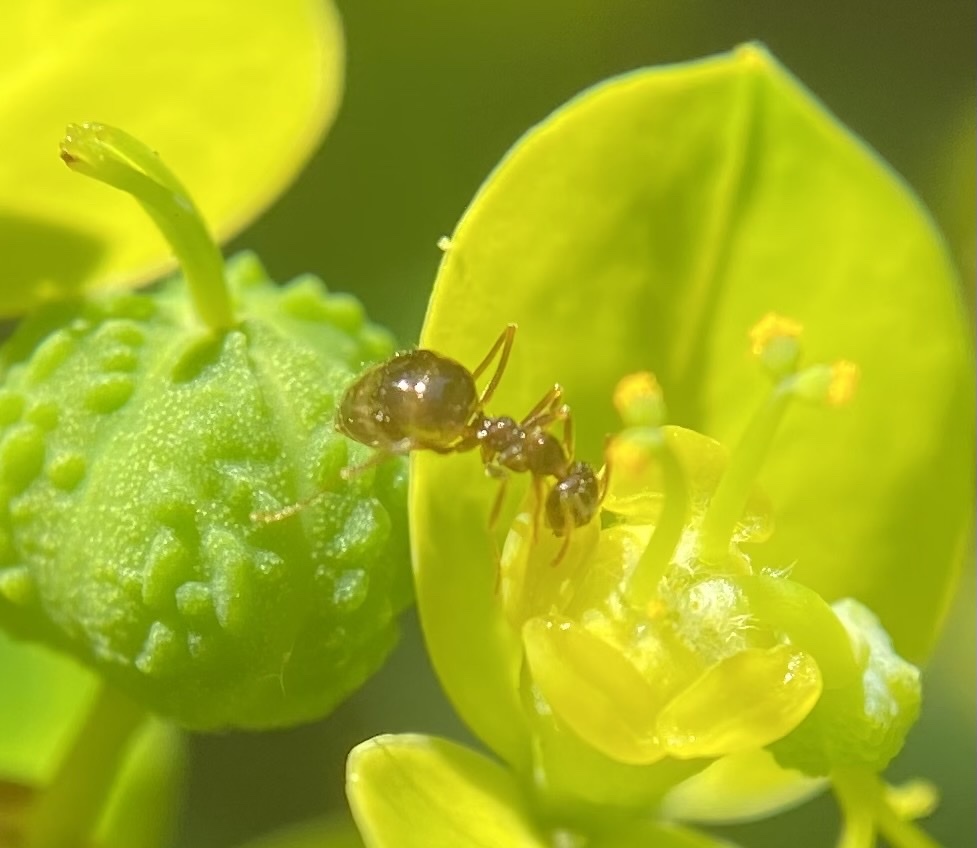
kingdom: Animalia
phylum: Arthropoda
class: Insecta
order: Hymenoptera
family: Formicidae
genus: Prenolepis
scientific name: Prenolepis imparis
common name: Small honey ant
